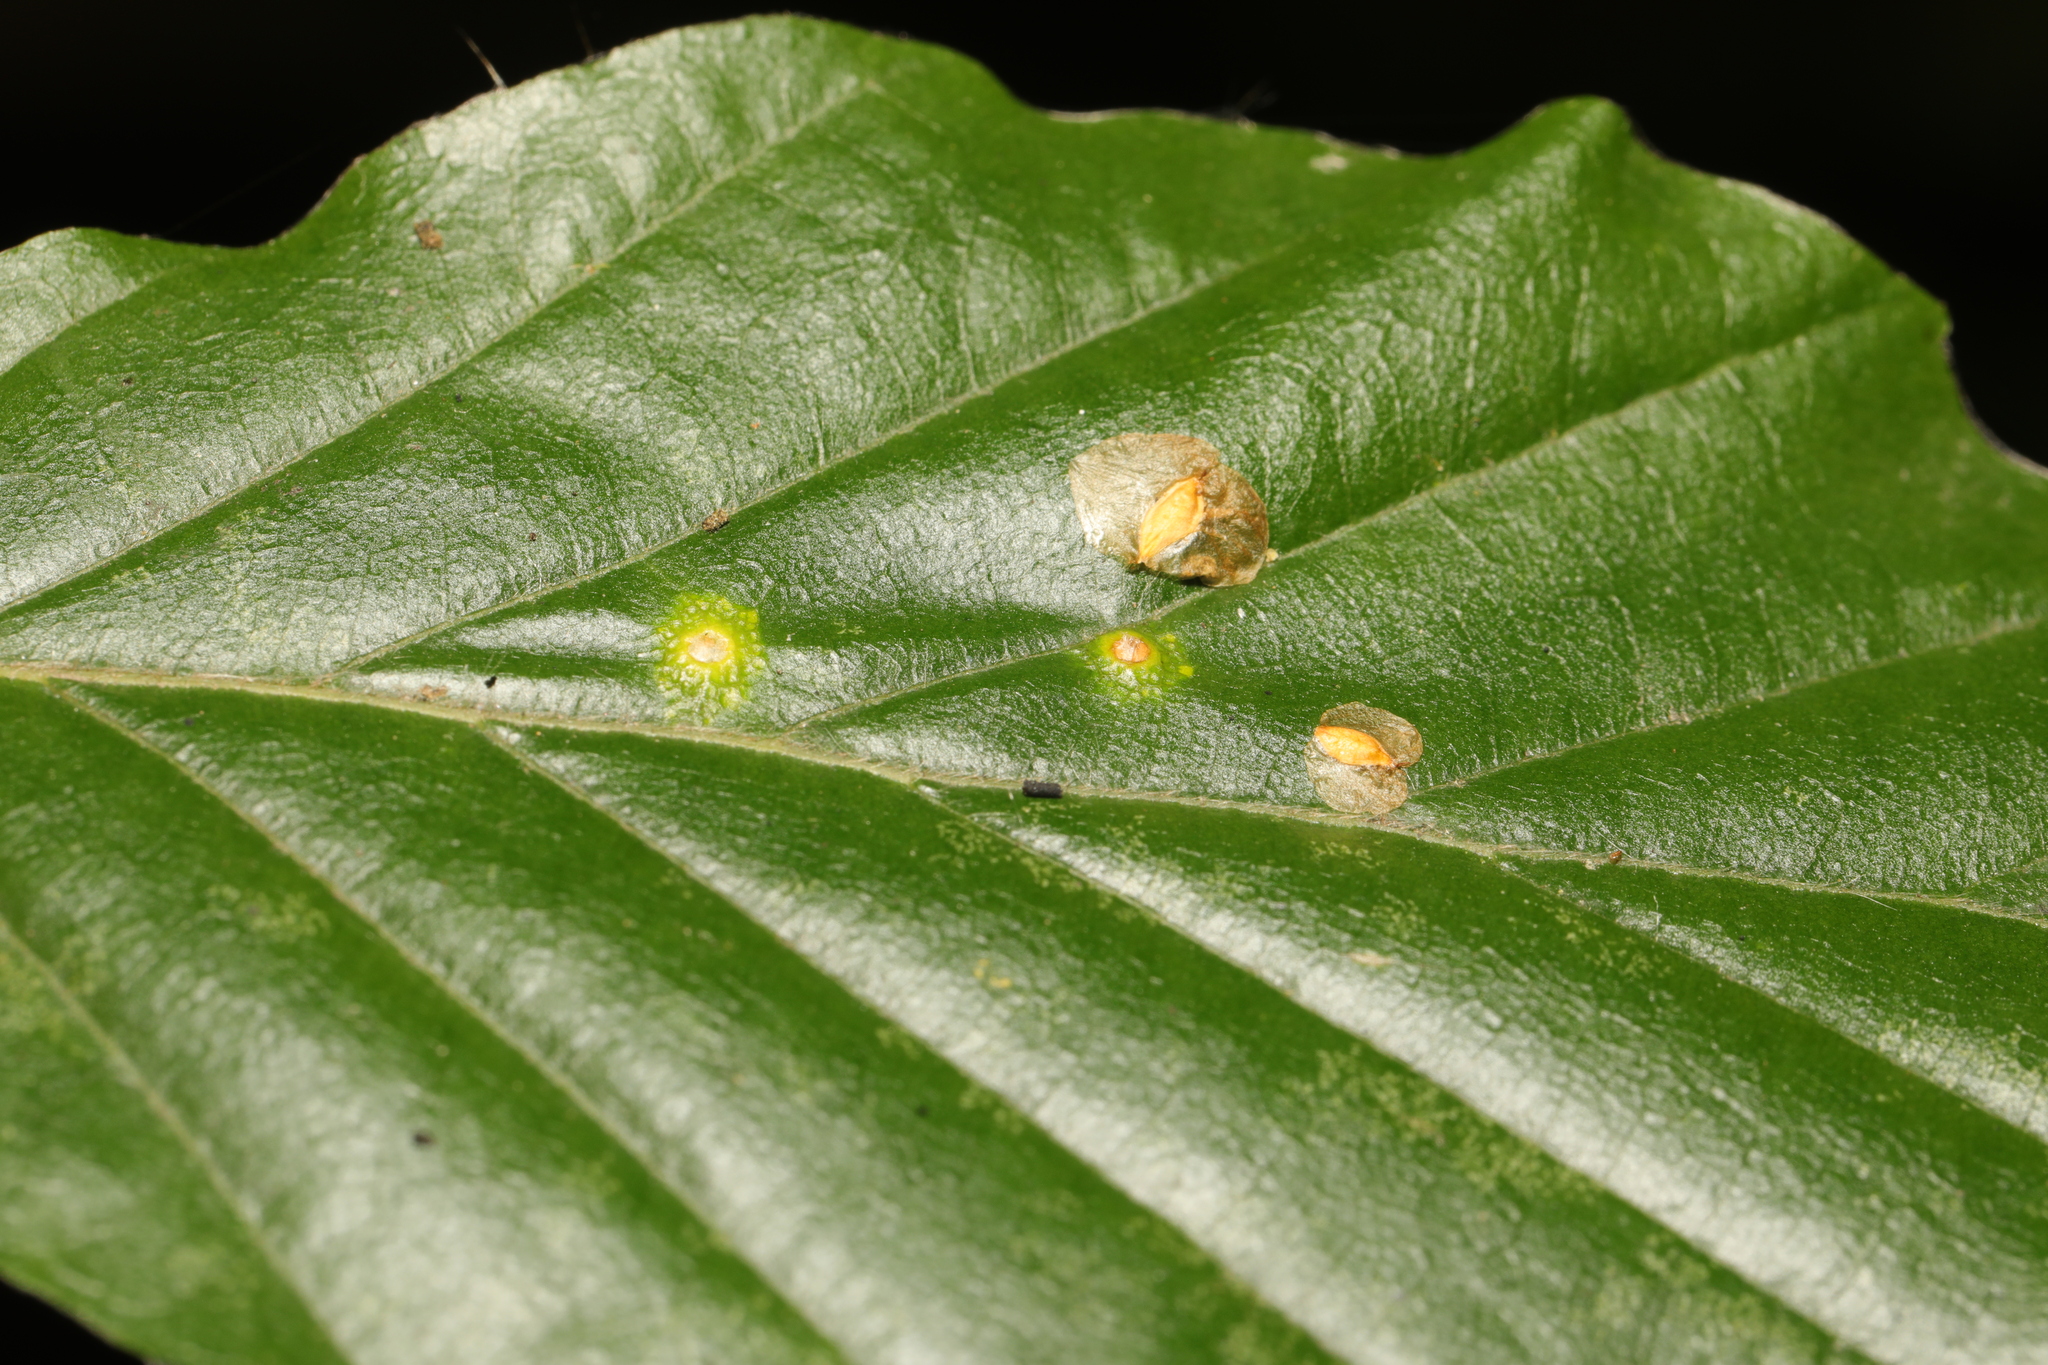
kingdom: Animalia
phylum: Arthropoda
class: Insecta
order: Diptera
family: Cecidomyiidae
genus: Hartigiola
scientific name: Hartigiola annulipes
